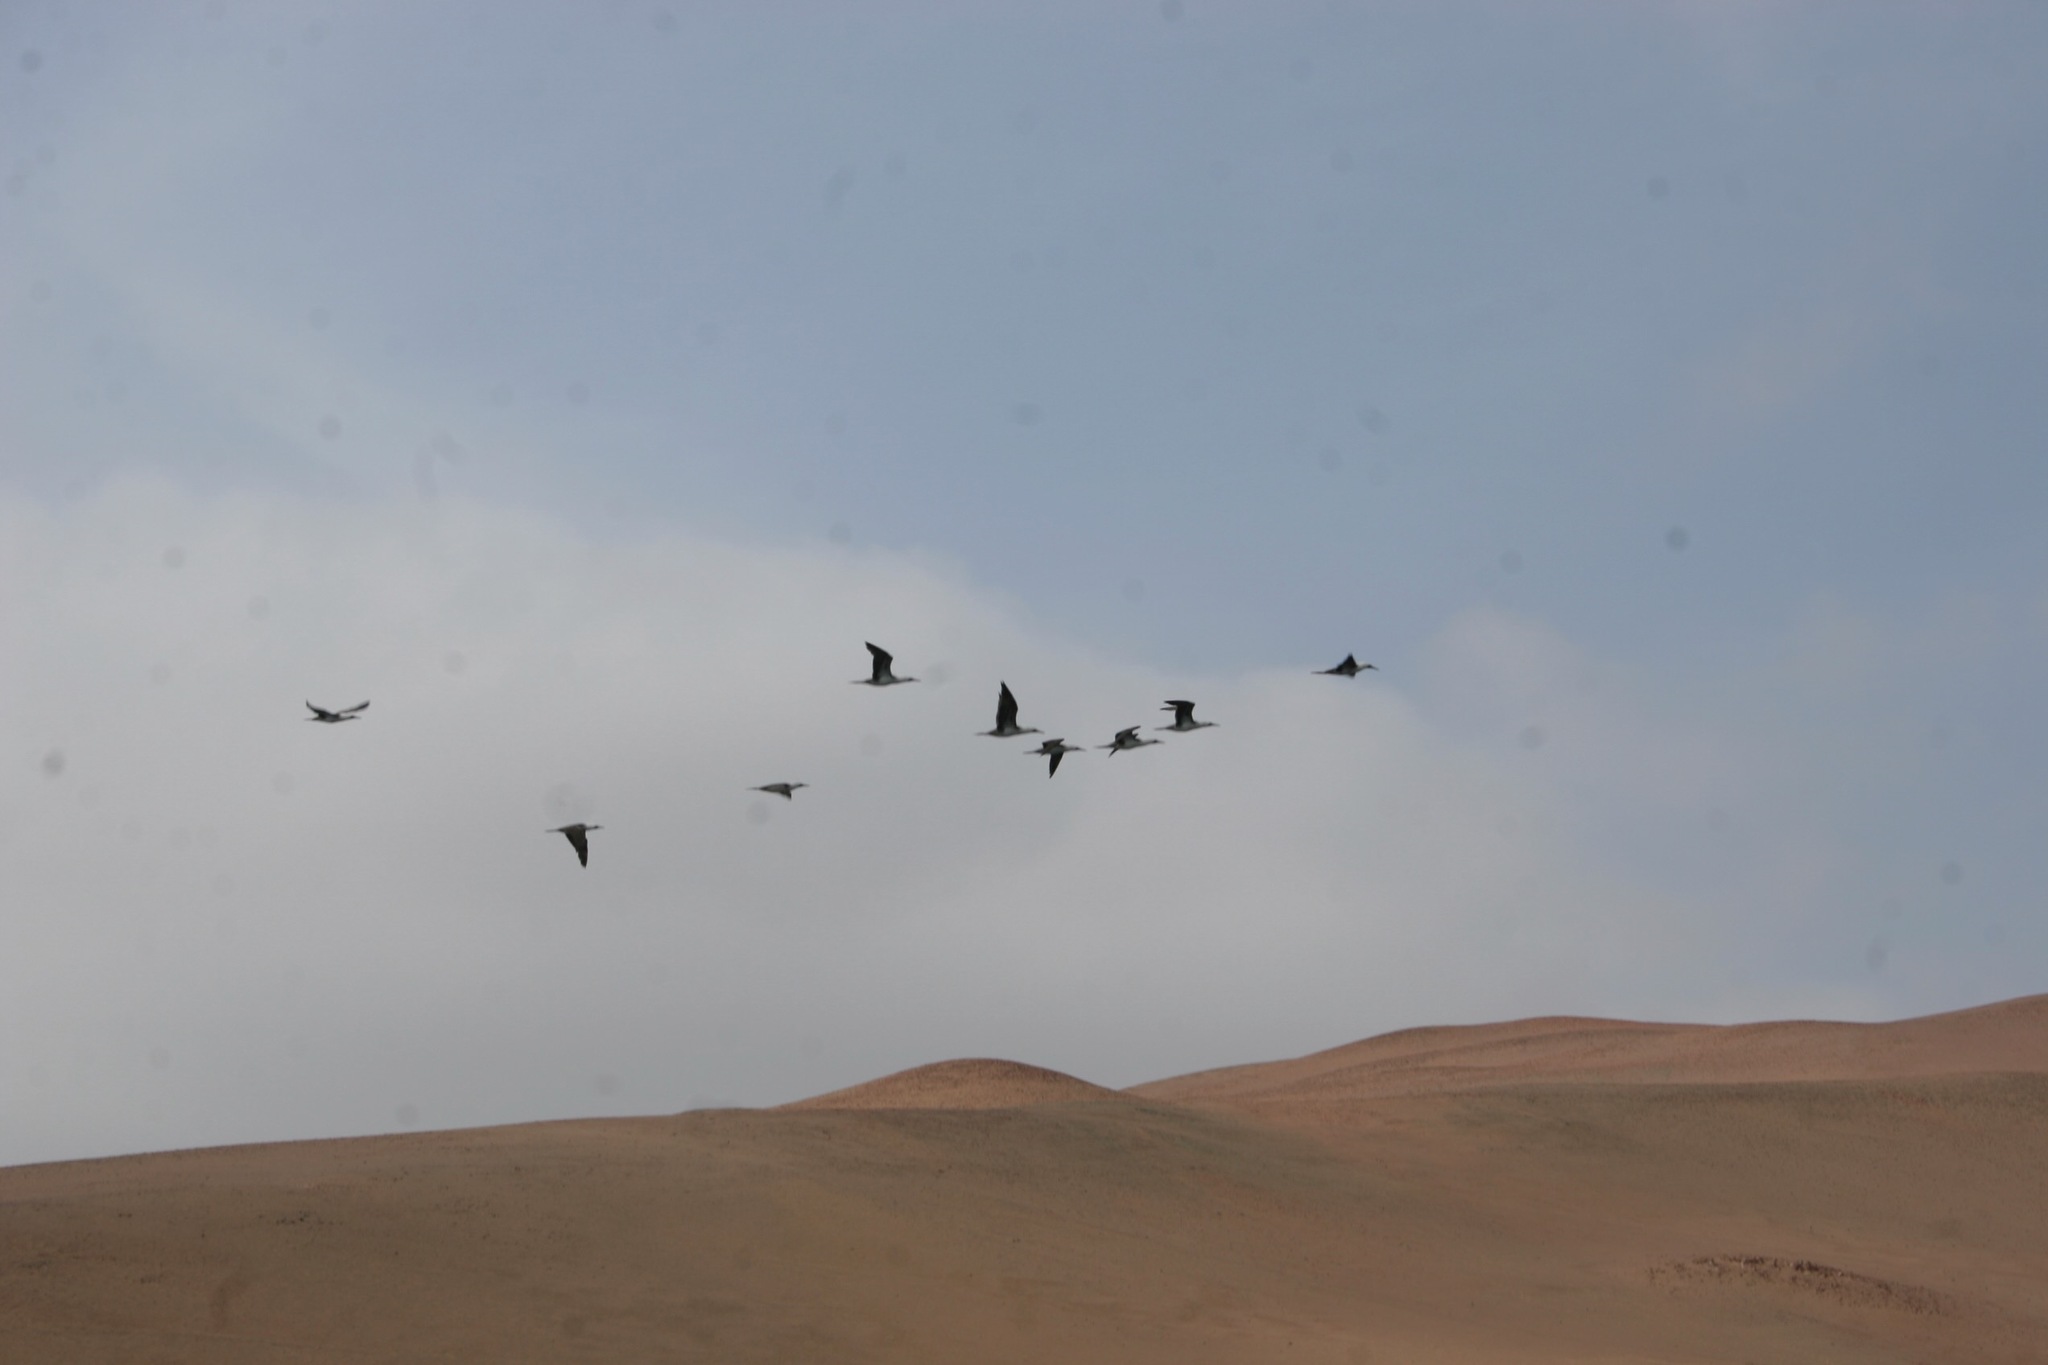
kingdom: Animalia
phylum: Chordata
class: Aves
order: Suliformes
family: Sulidae
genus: Sula
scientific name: Sula variegata
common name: Peruvian booby
